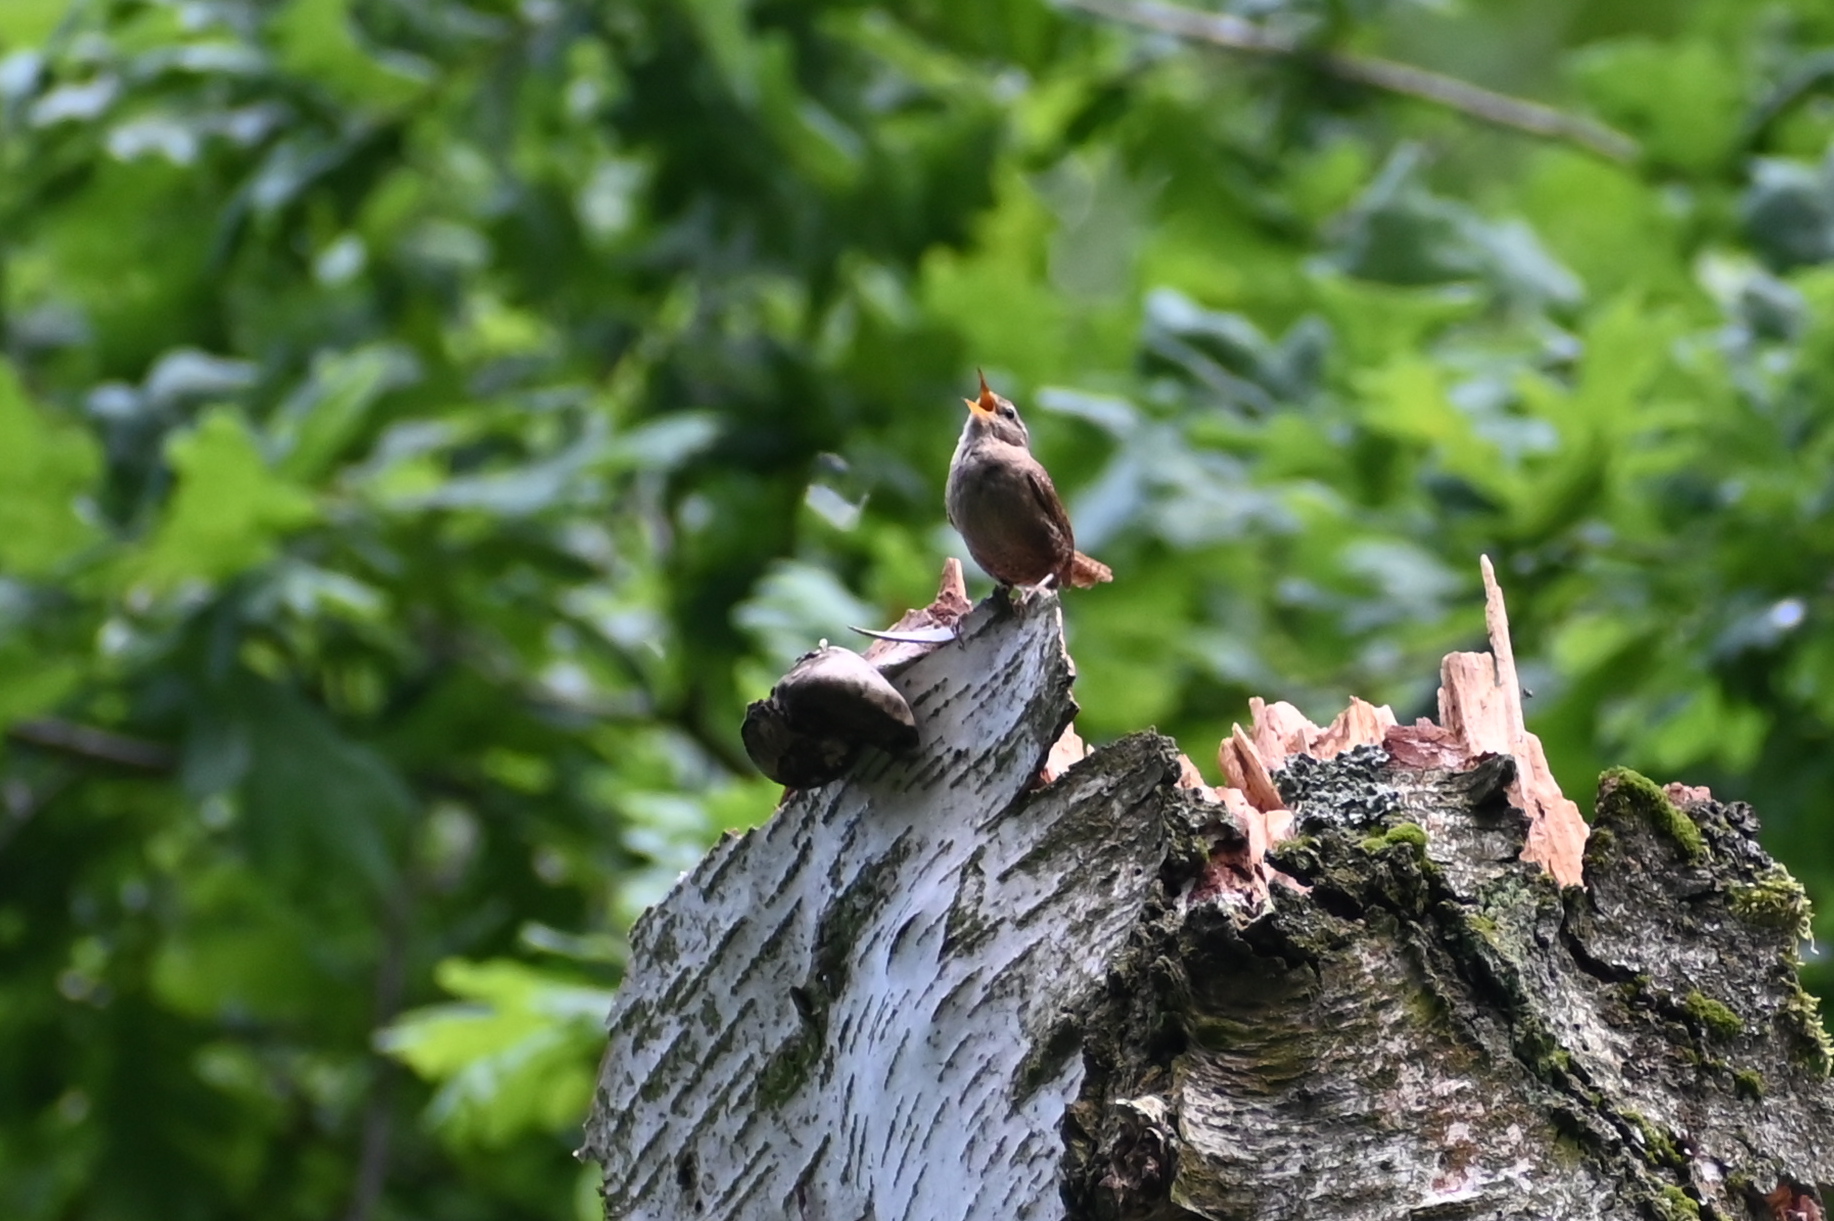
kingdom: Animalia
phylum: Chordata
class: Aves
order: Passeriformes
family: Troglodytidae
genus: Troglodytes
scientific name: Troglodytes troglodytes
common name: Eurasian wren
